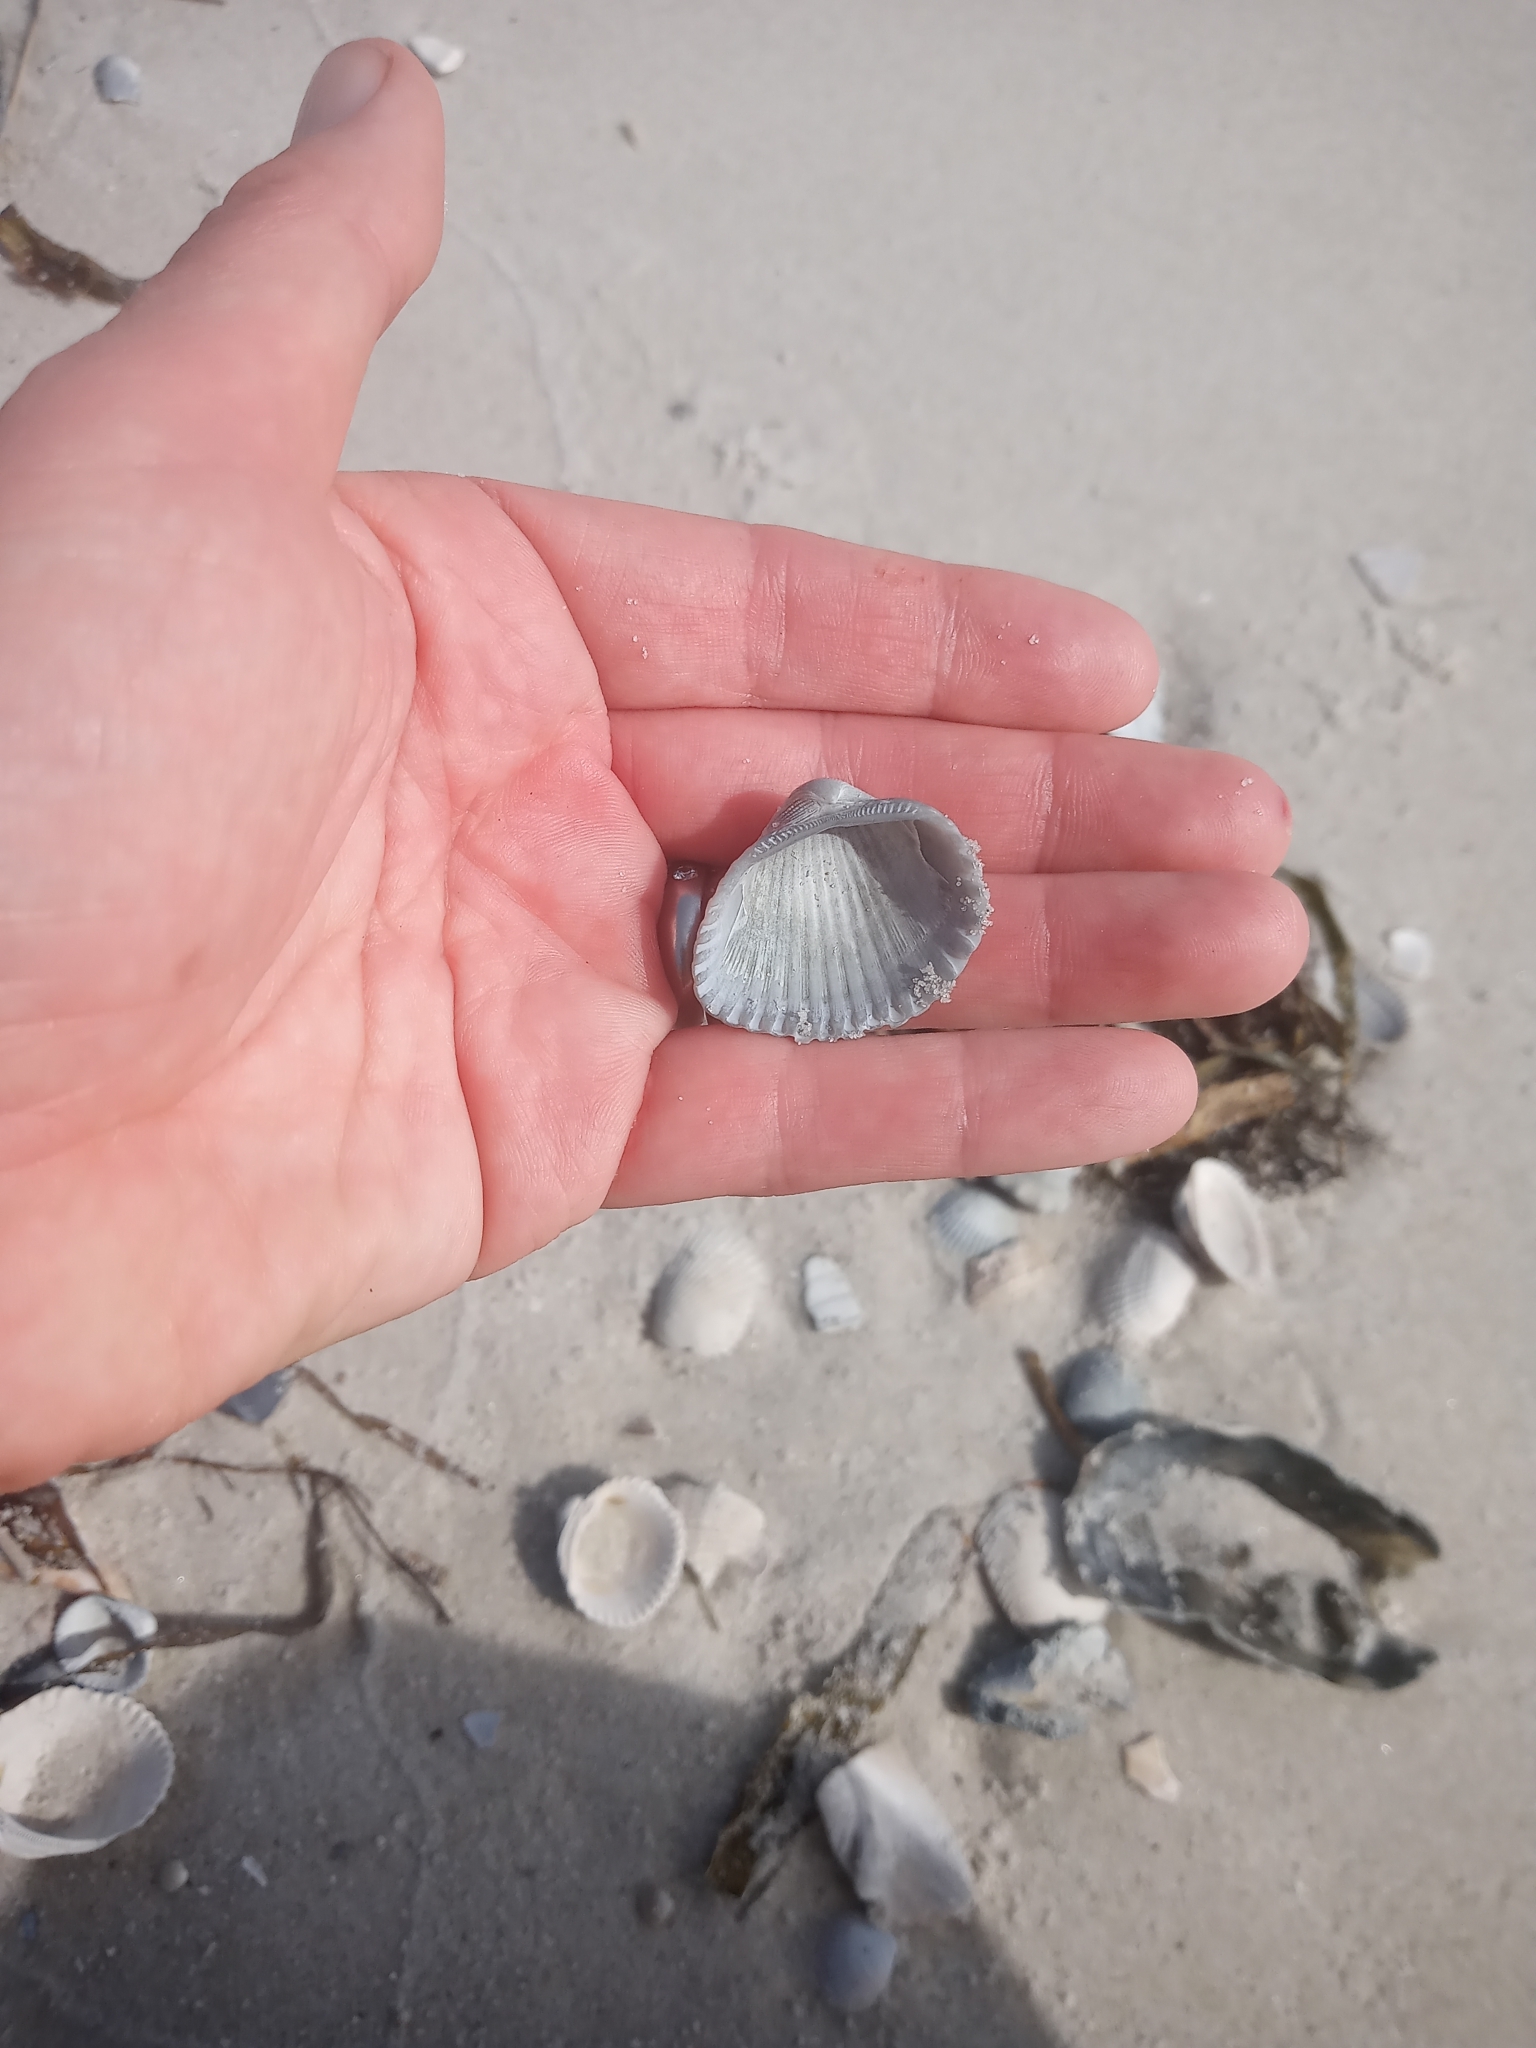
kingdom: Animalia
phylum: Mollusca
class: Bivalvia
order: Arcida
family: Arcidae
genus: Anadara
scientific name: Anadara brasiliana
